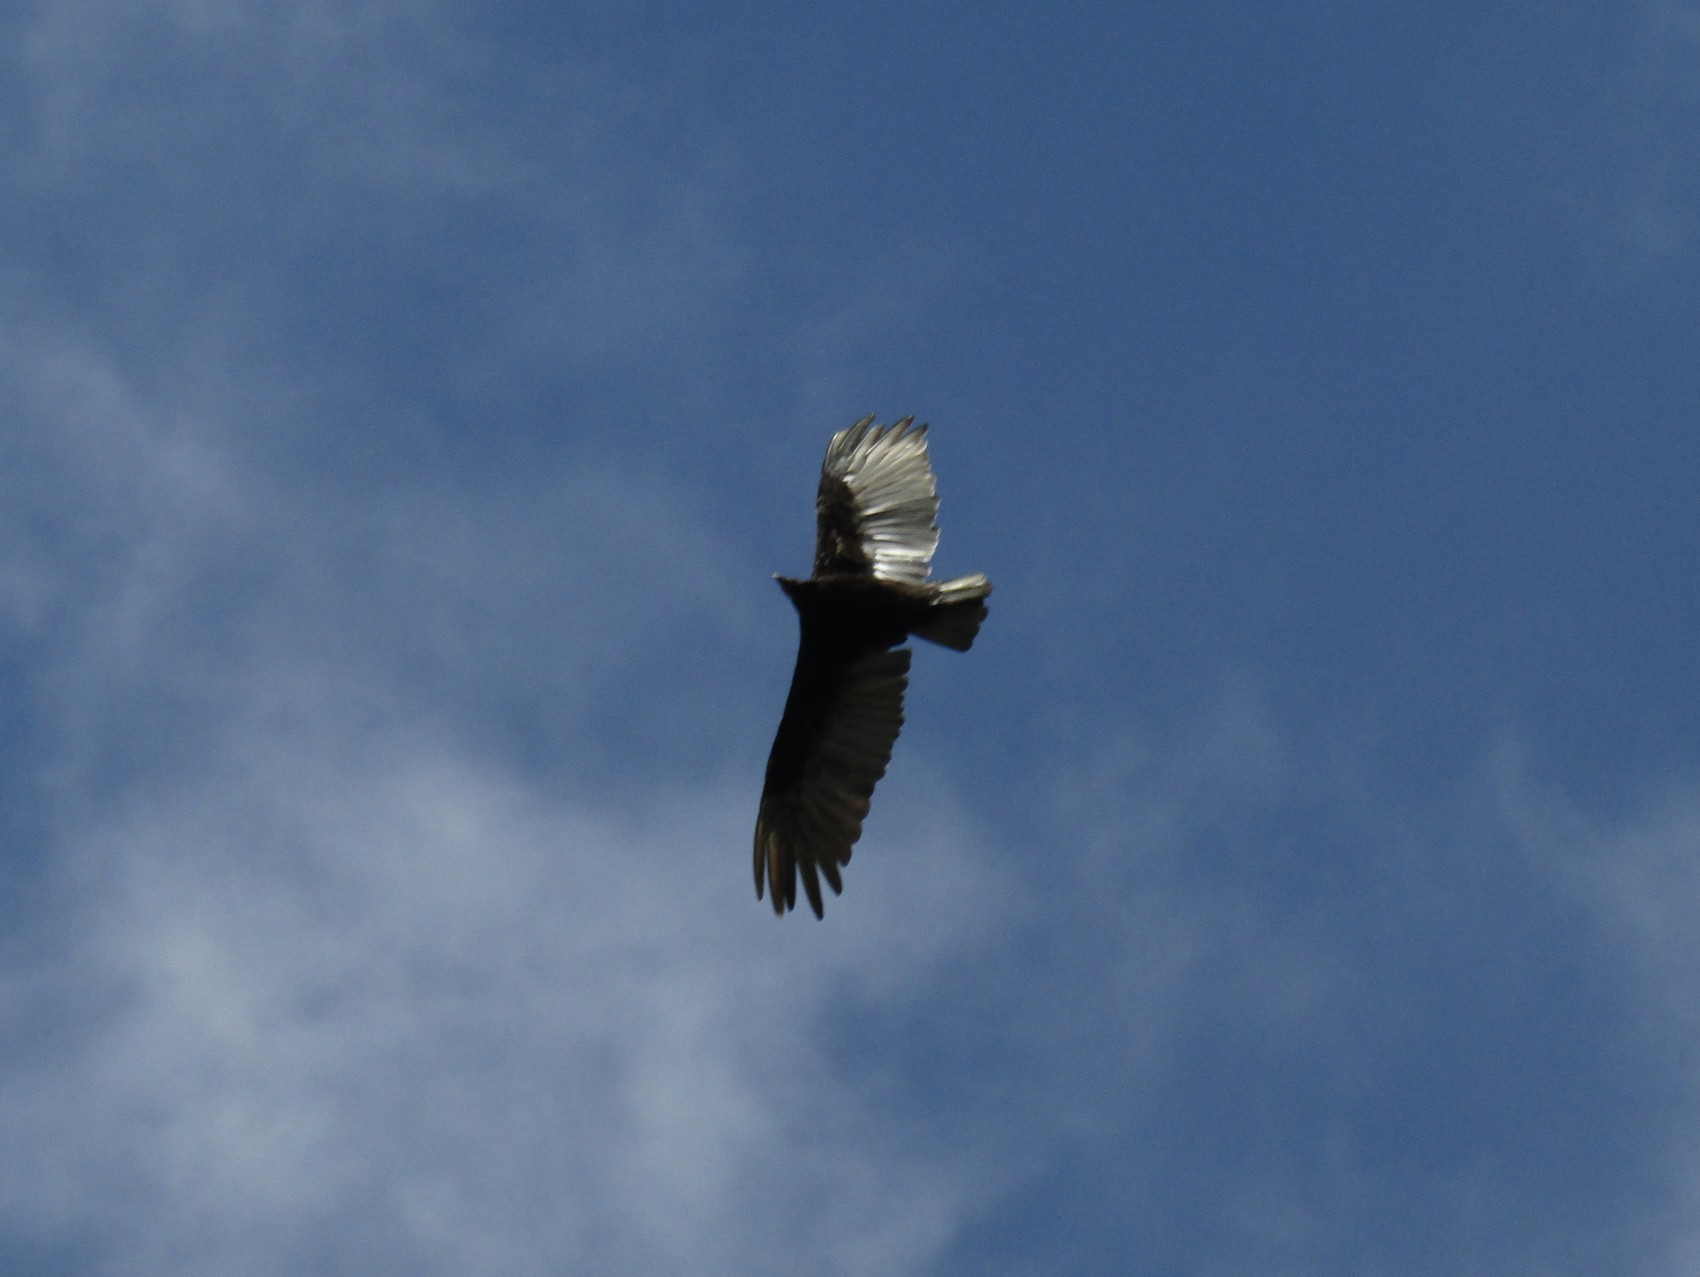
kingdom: Animalia
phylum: Chordata
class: Aves
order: Accipitriformes
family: Cathartidae
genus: Cathartes
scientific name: Cathartes aura
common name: Turkey vulture
